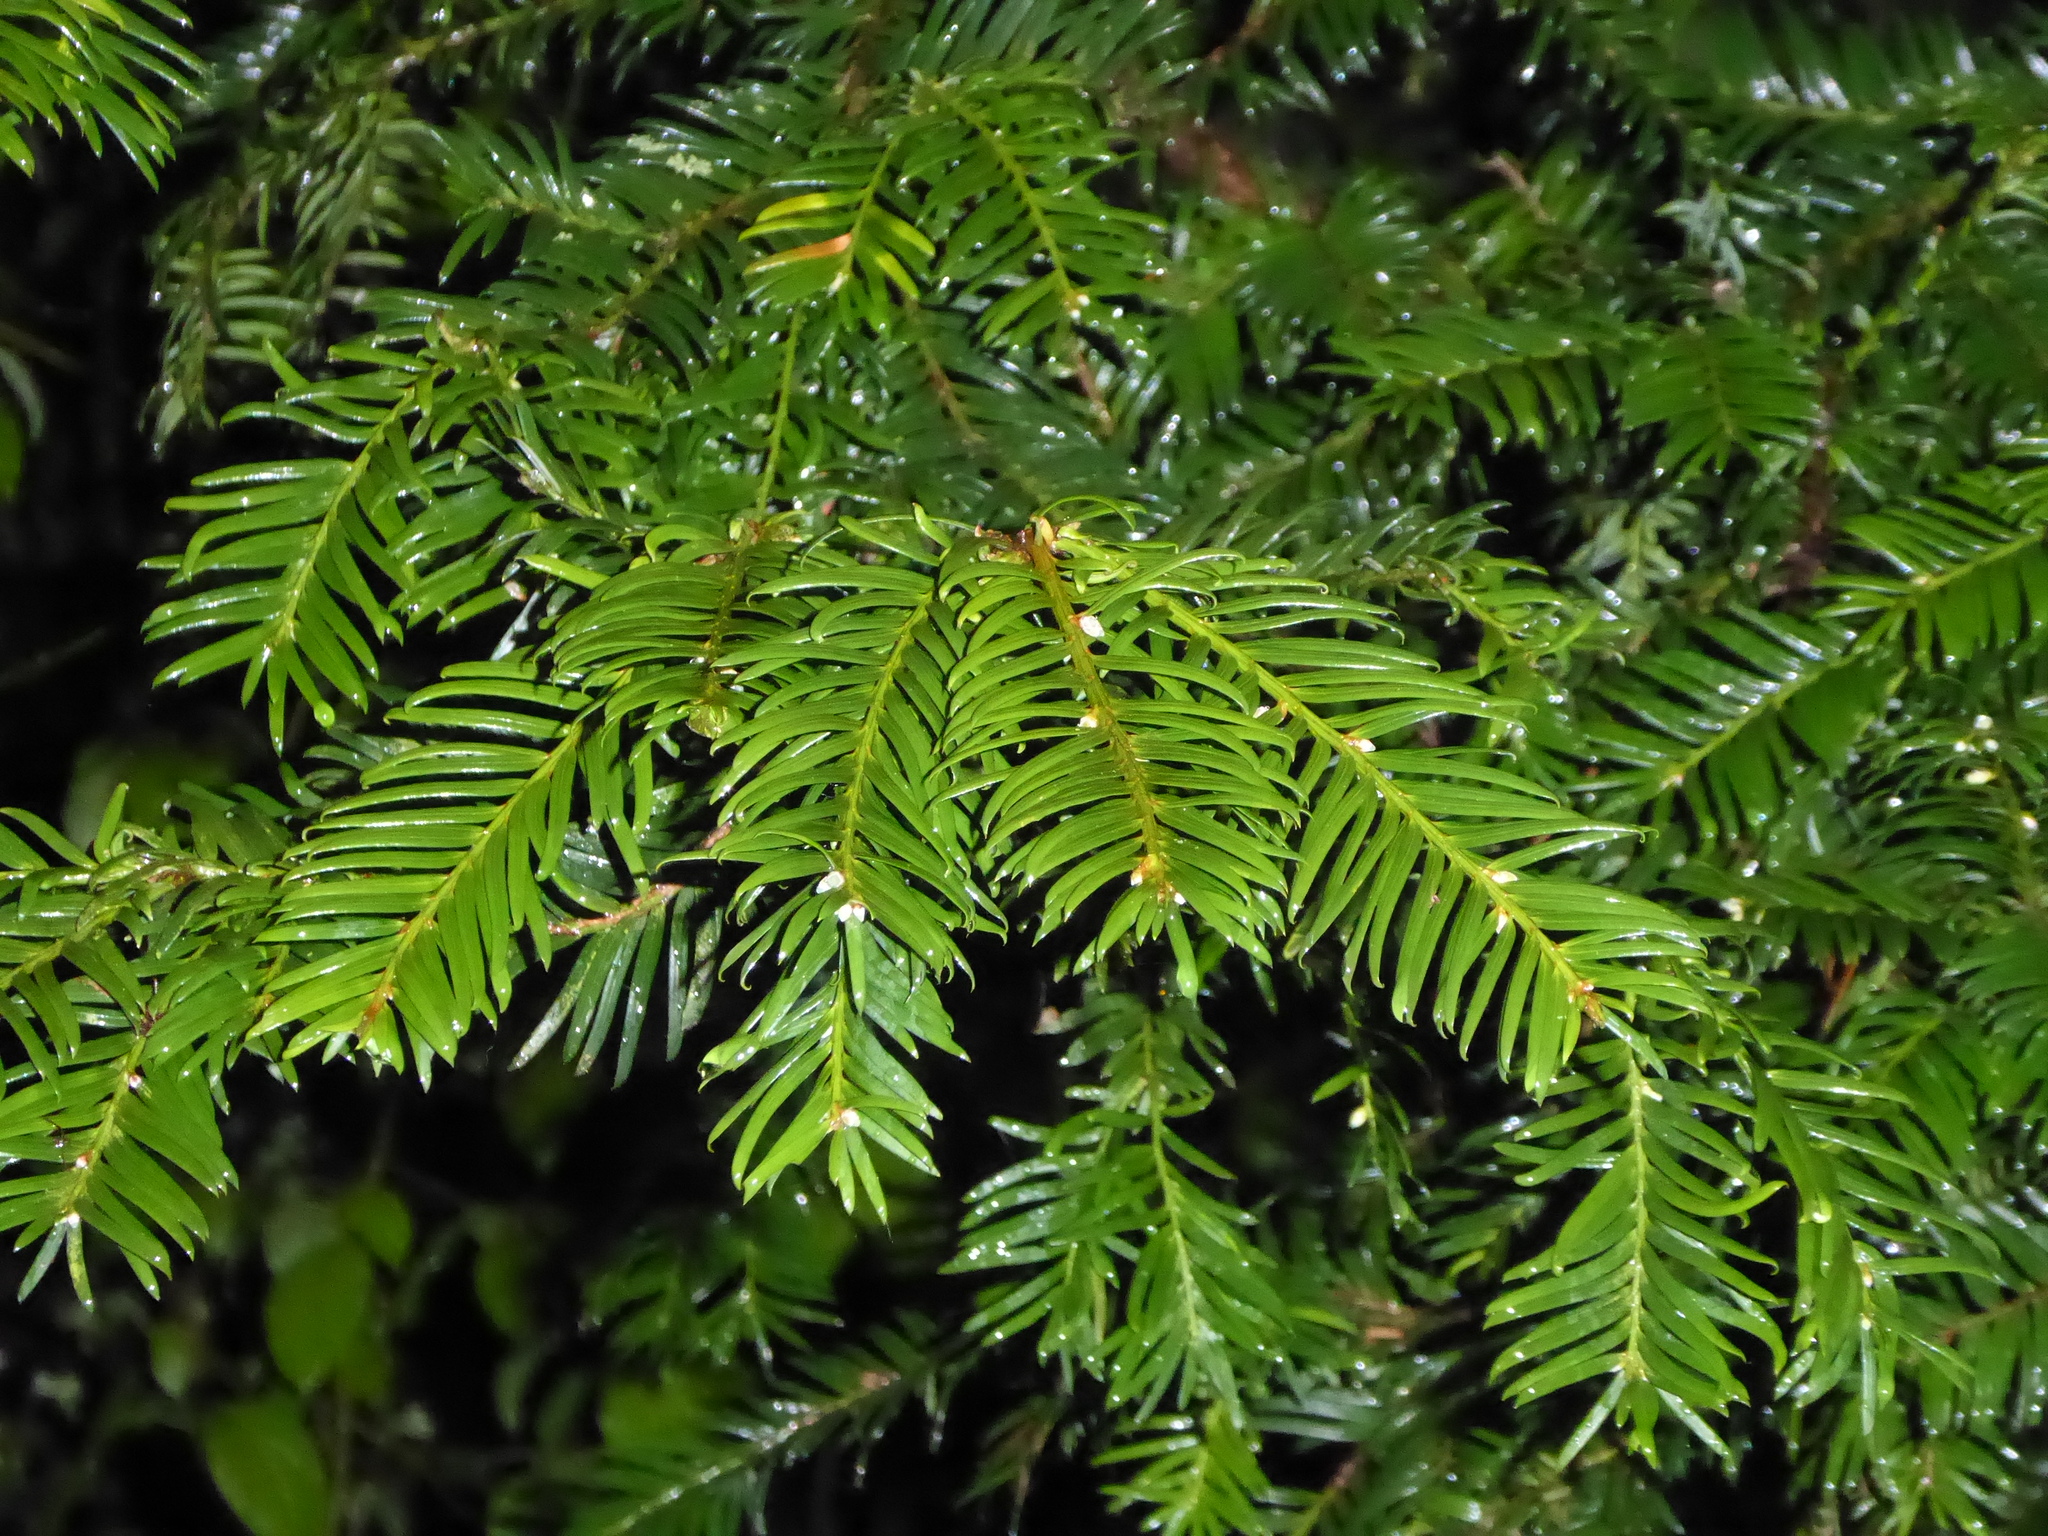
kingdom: Plantae
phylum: Tracheophyta
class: Pinopsida
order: Pinales
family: Taxaceae
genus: Taxus
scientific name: Taxus baccata
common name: Yew
